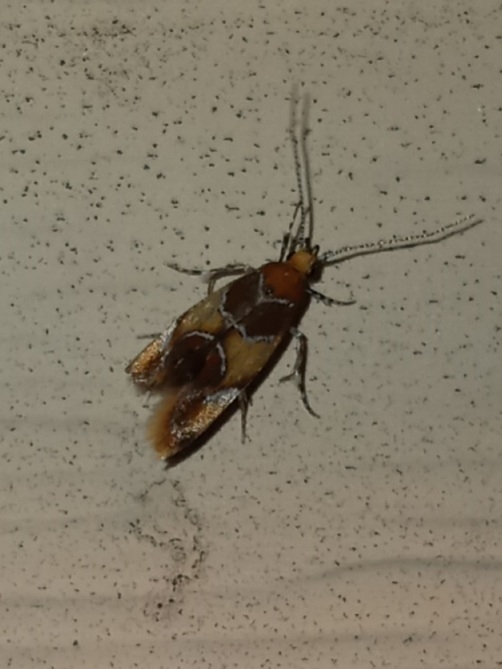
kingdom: Animalia
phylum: Arthropoda
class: Insecta
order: Lepidoptera
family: Oecophoridae
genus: Callima
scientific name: Callima argenticinctella
